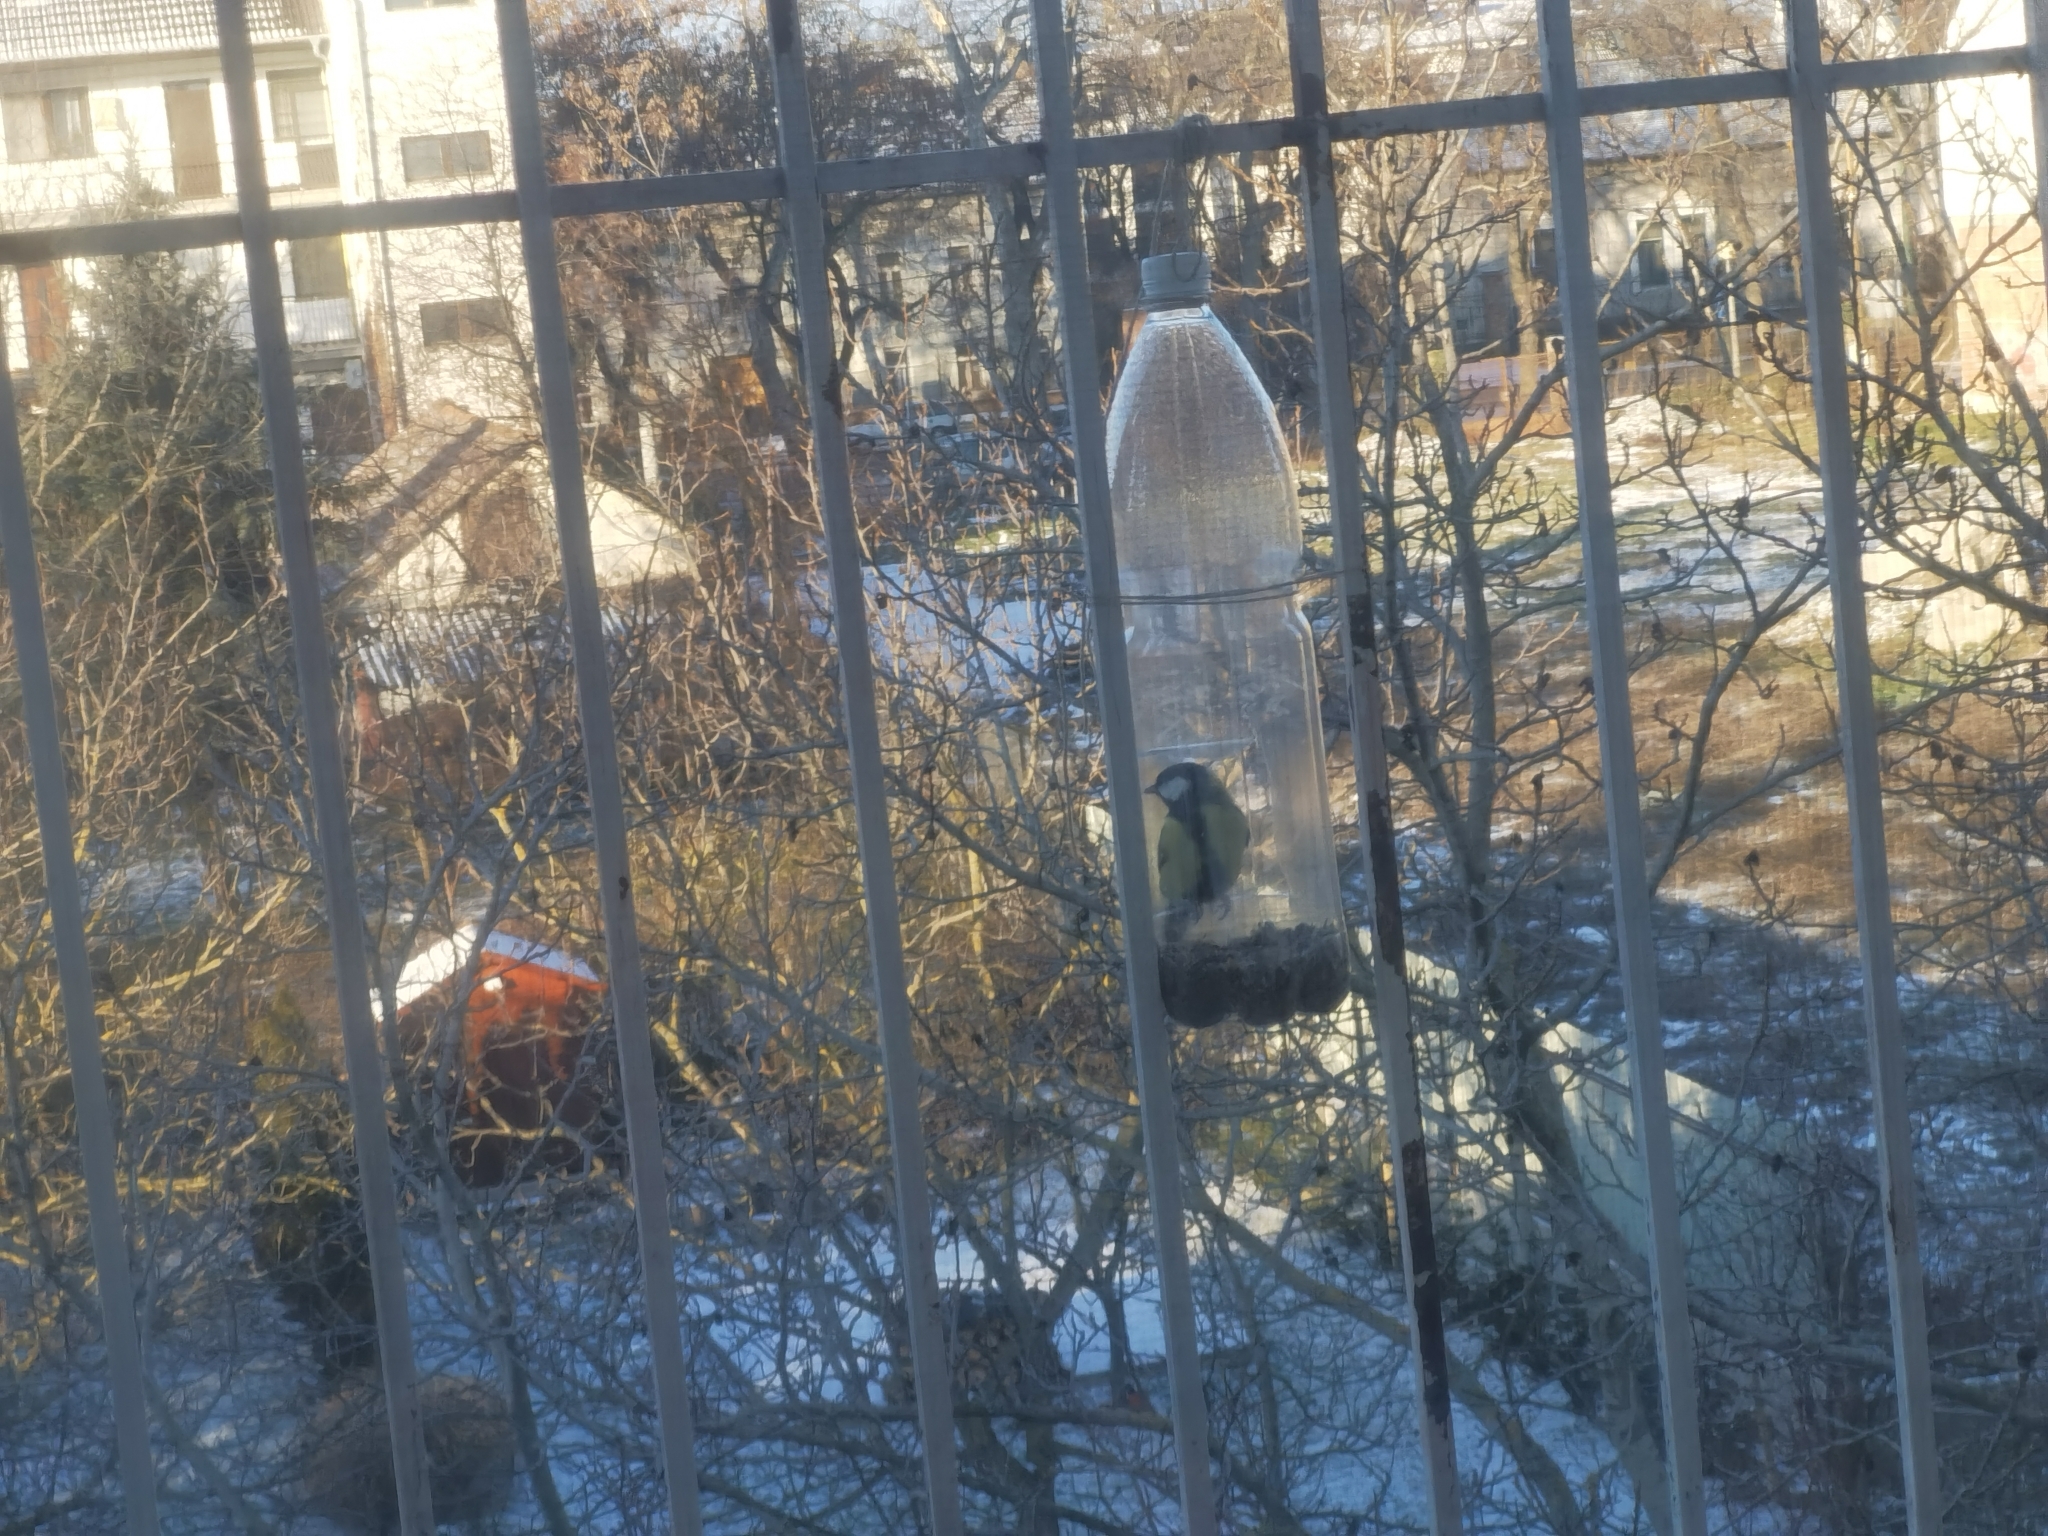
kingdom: Animalia
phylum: Chordata
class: Aves
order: Passeriformes
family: Paridae
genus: Parus
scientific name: Parus major
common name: Great tit
